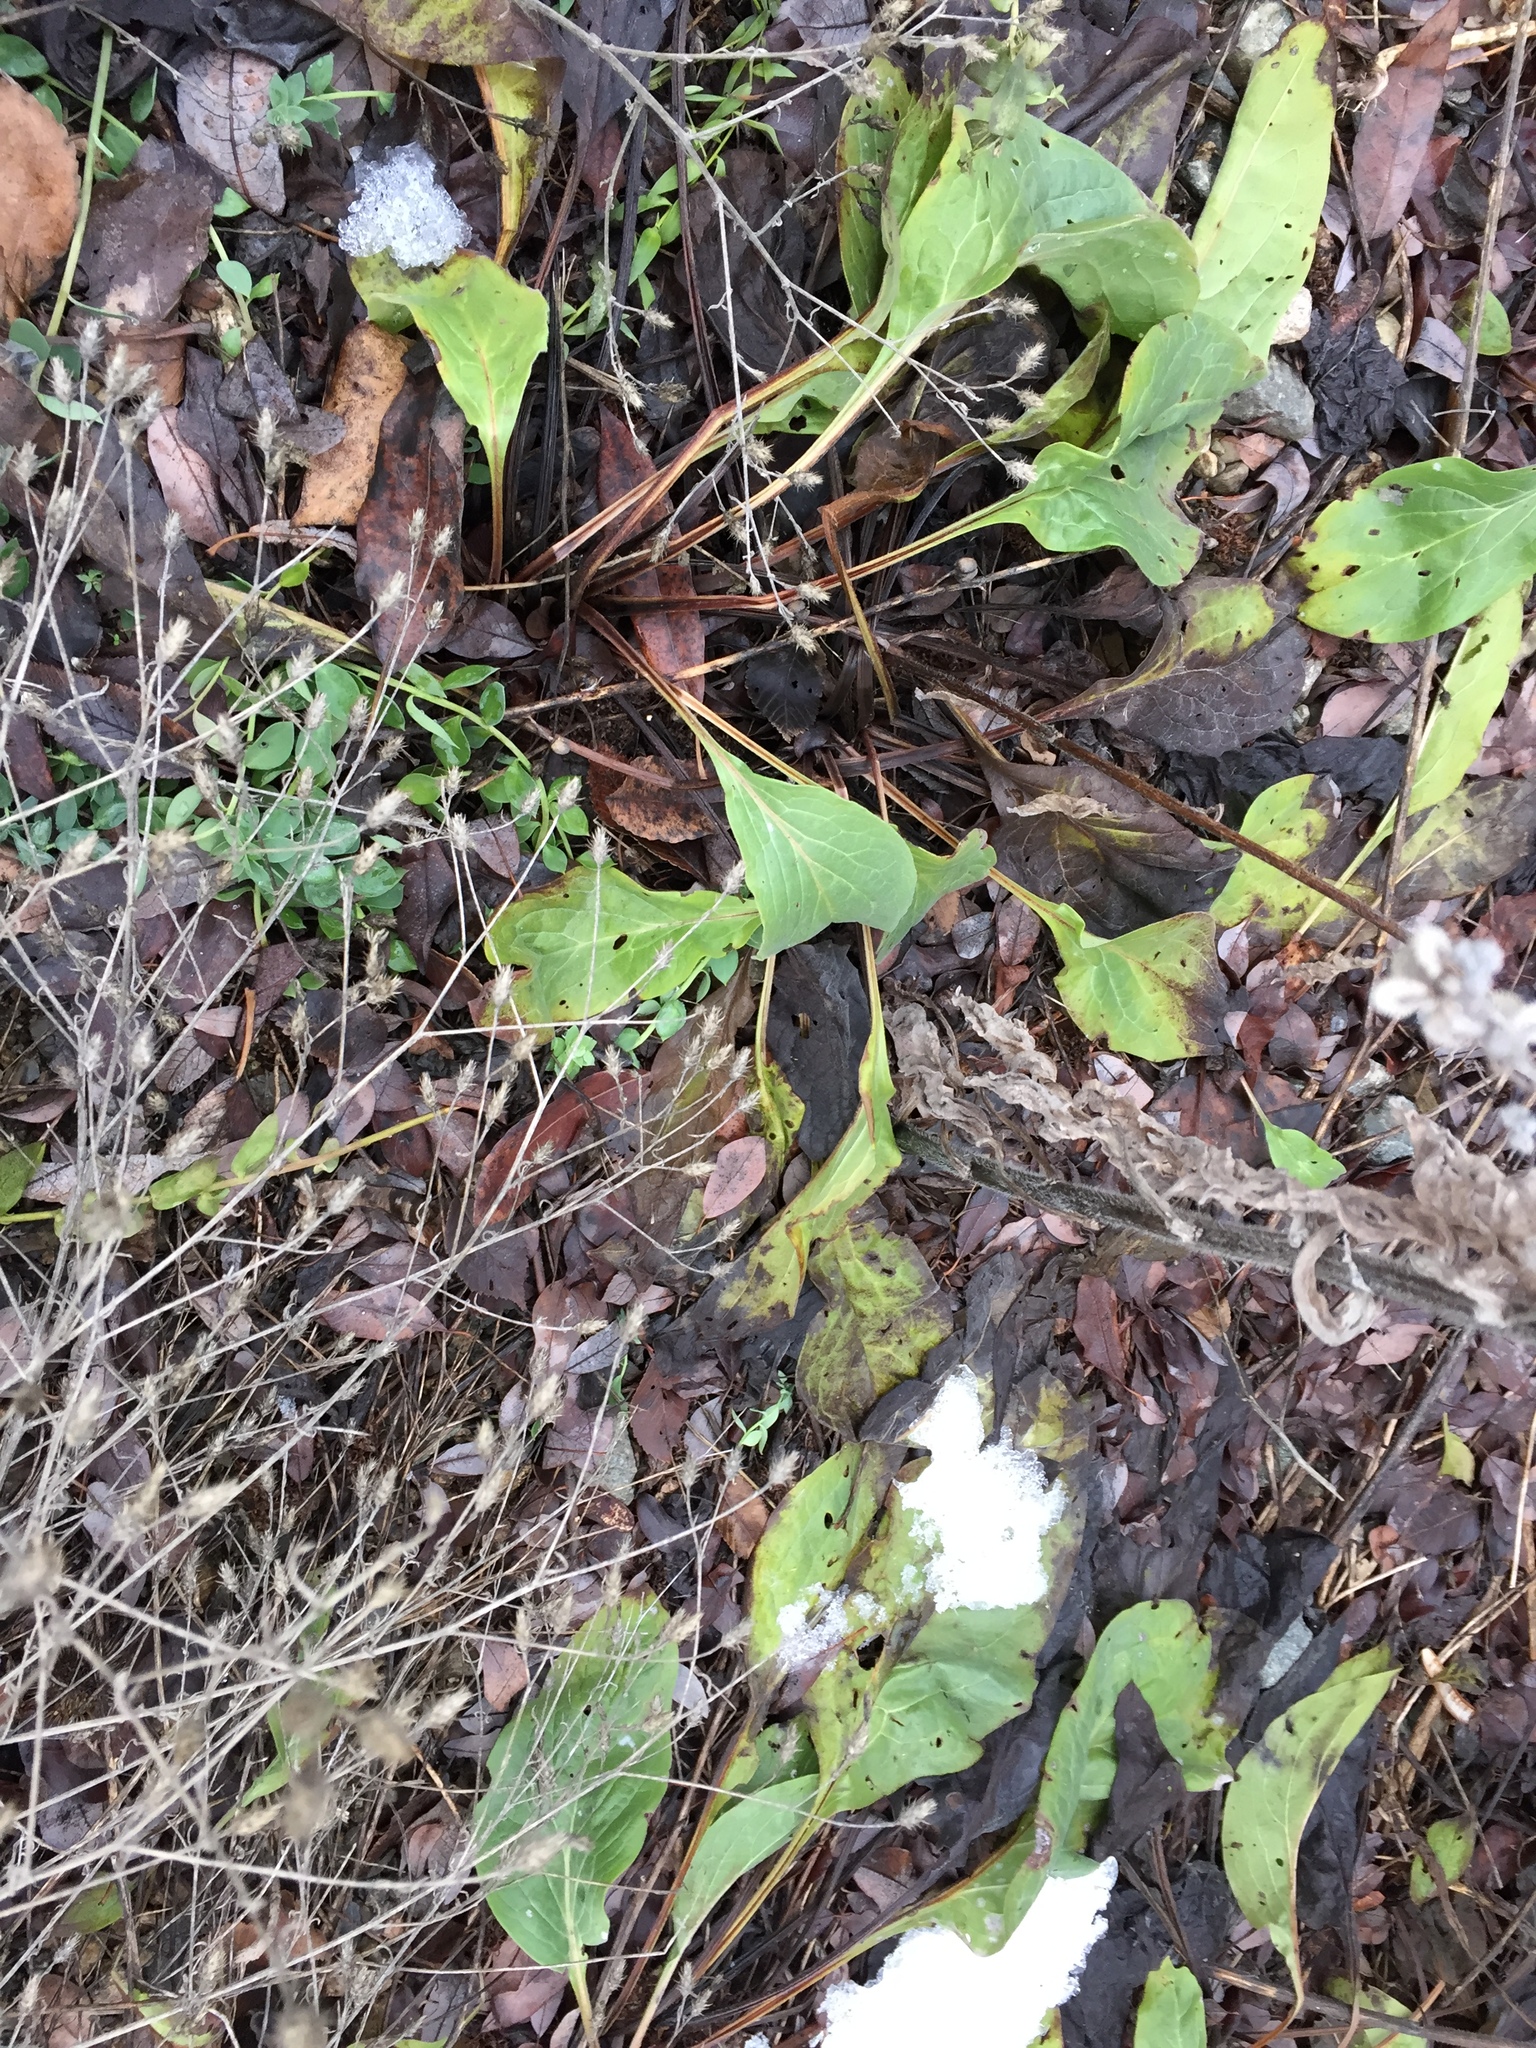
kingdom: Plantae
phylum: Tracheophyta
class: Magnoliopsida
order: Boraginales
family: Boraginaceae
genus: Cynoglossum
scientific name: Cynoglossum officinale
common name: Hound's-tongue
